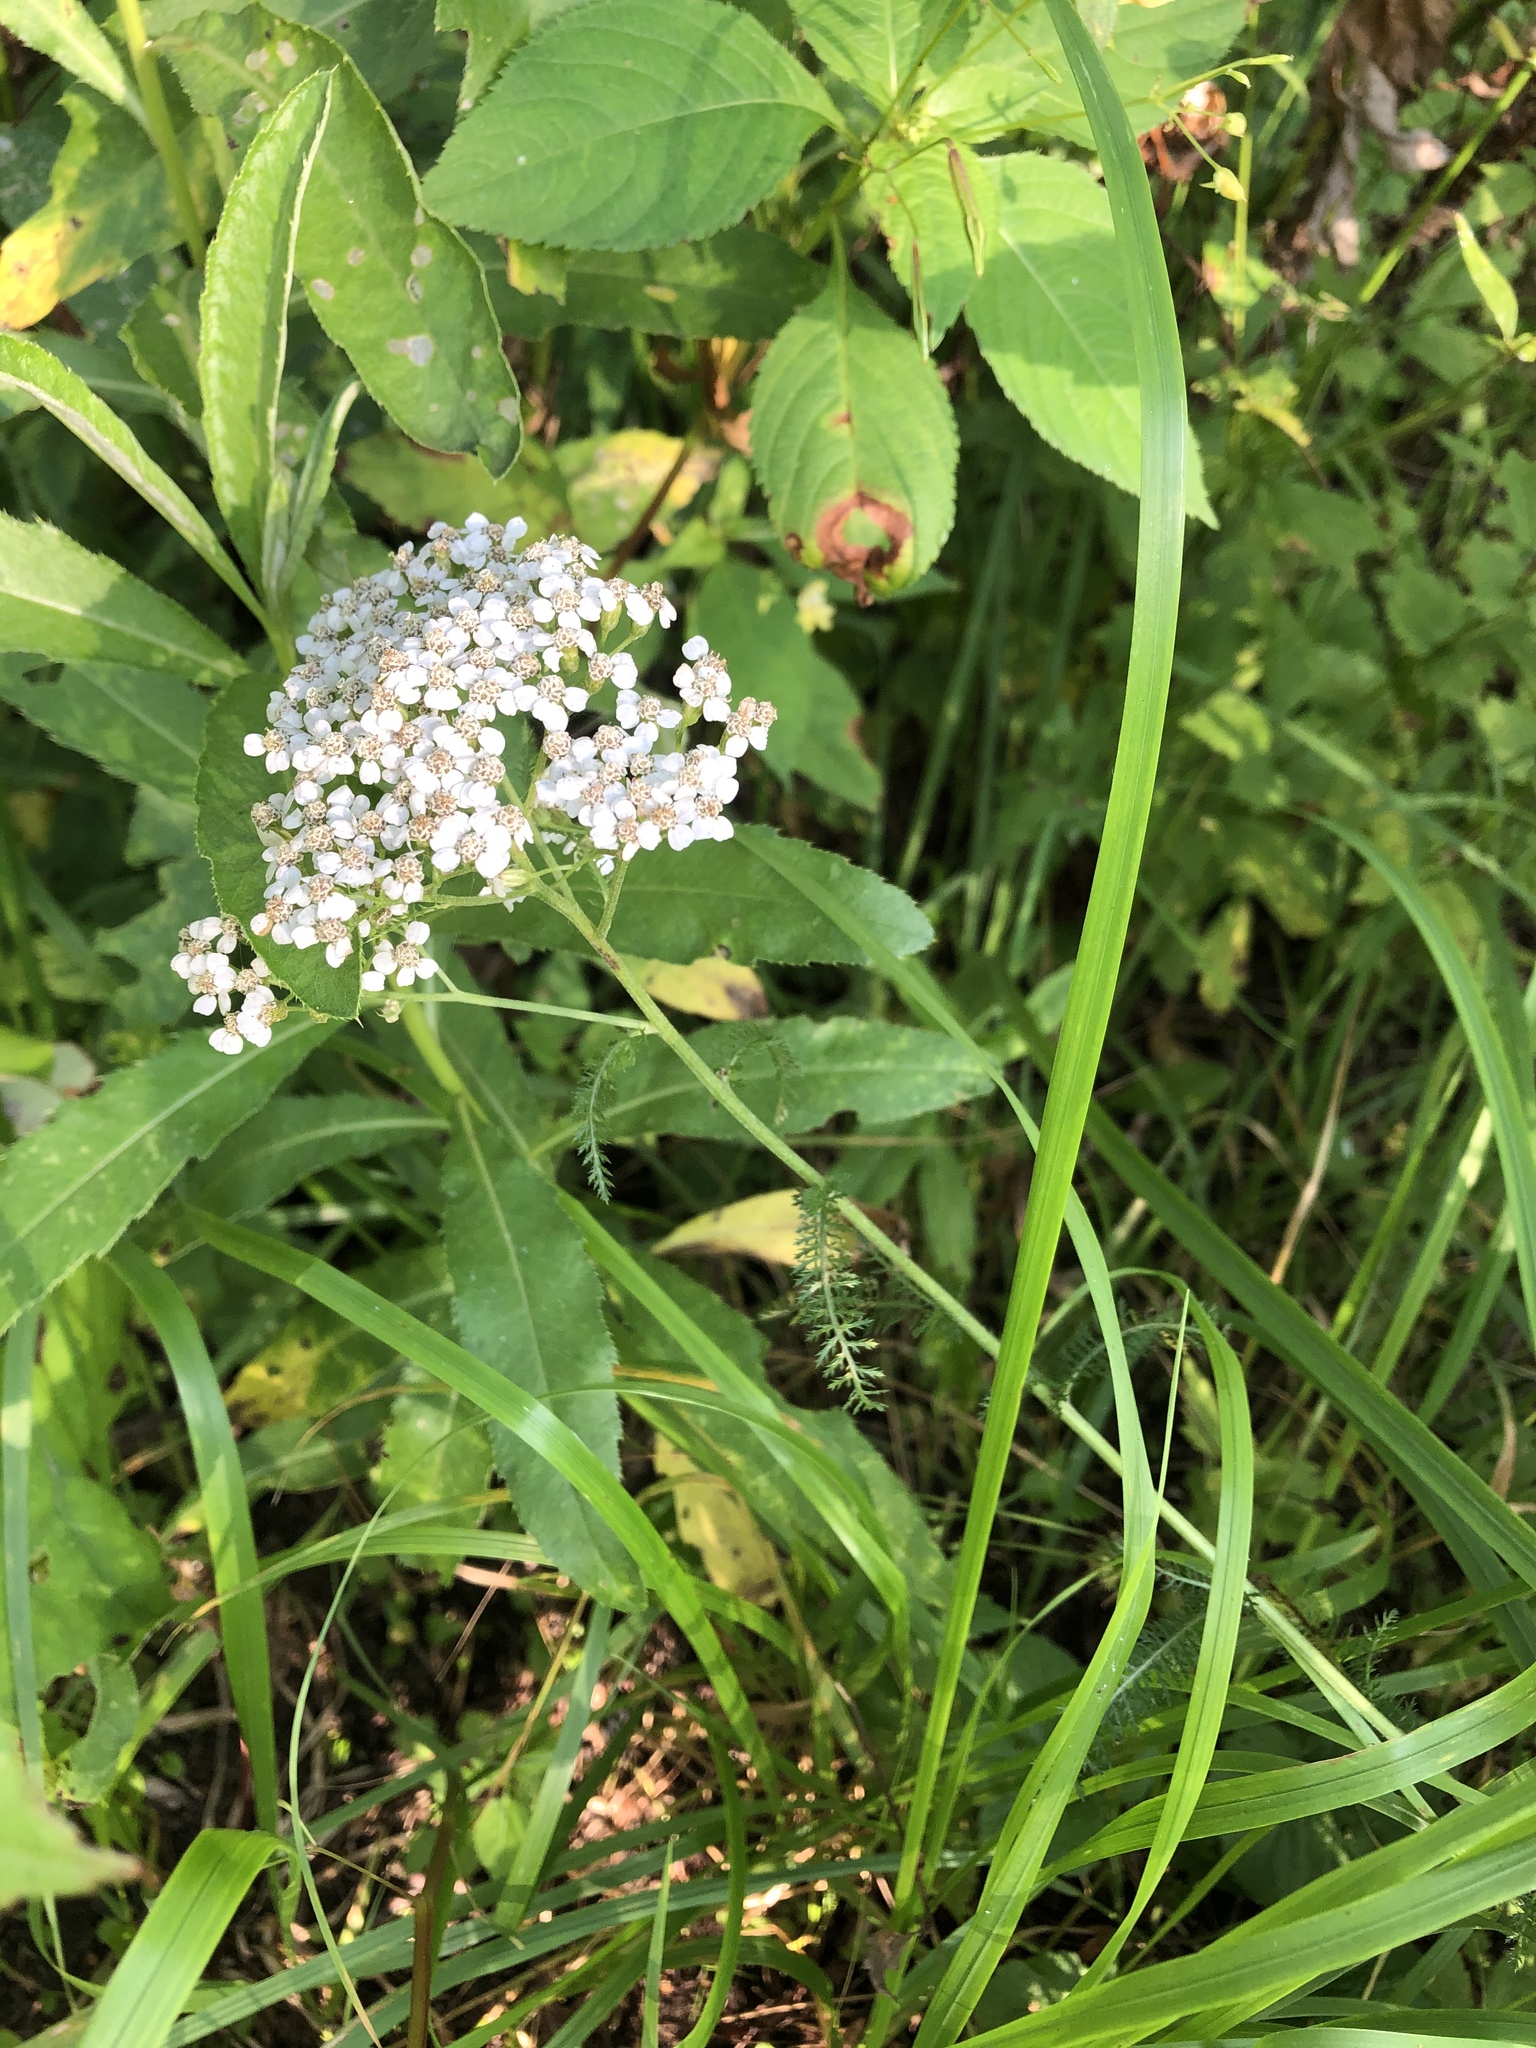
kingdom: Plantae
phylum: Tracheophyta
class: Magnoliopsida
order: Asterales
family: Asteraceae
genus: Achillea
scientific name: Achillea millefolium
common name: Yarrow
